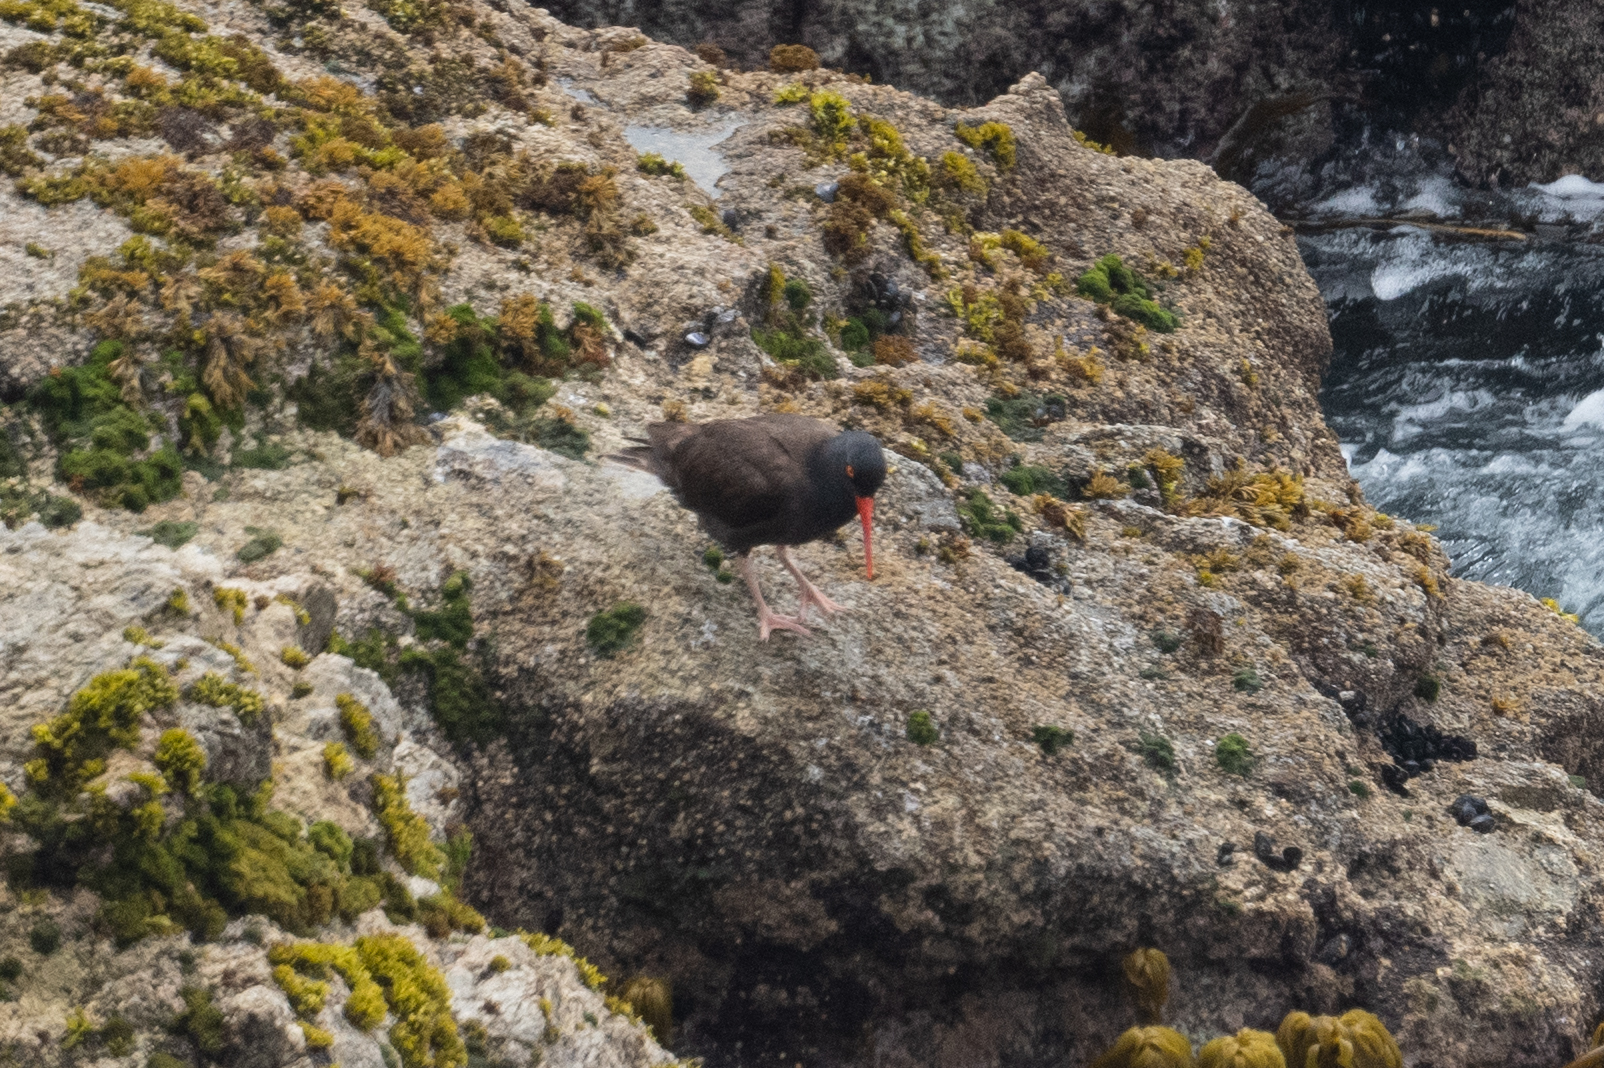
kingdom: Animalia
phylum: Chordata
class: Aves
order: Charadriiformes
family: Haematopodidae
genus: Haematopus
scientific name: Haematopus bachmani
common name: Black oystercatcher
